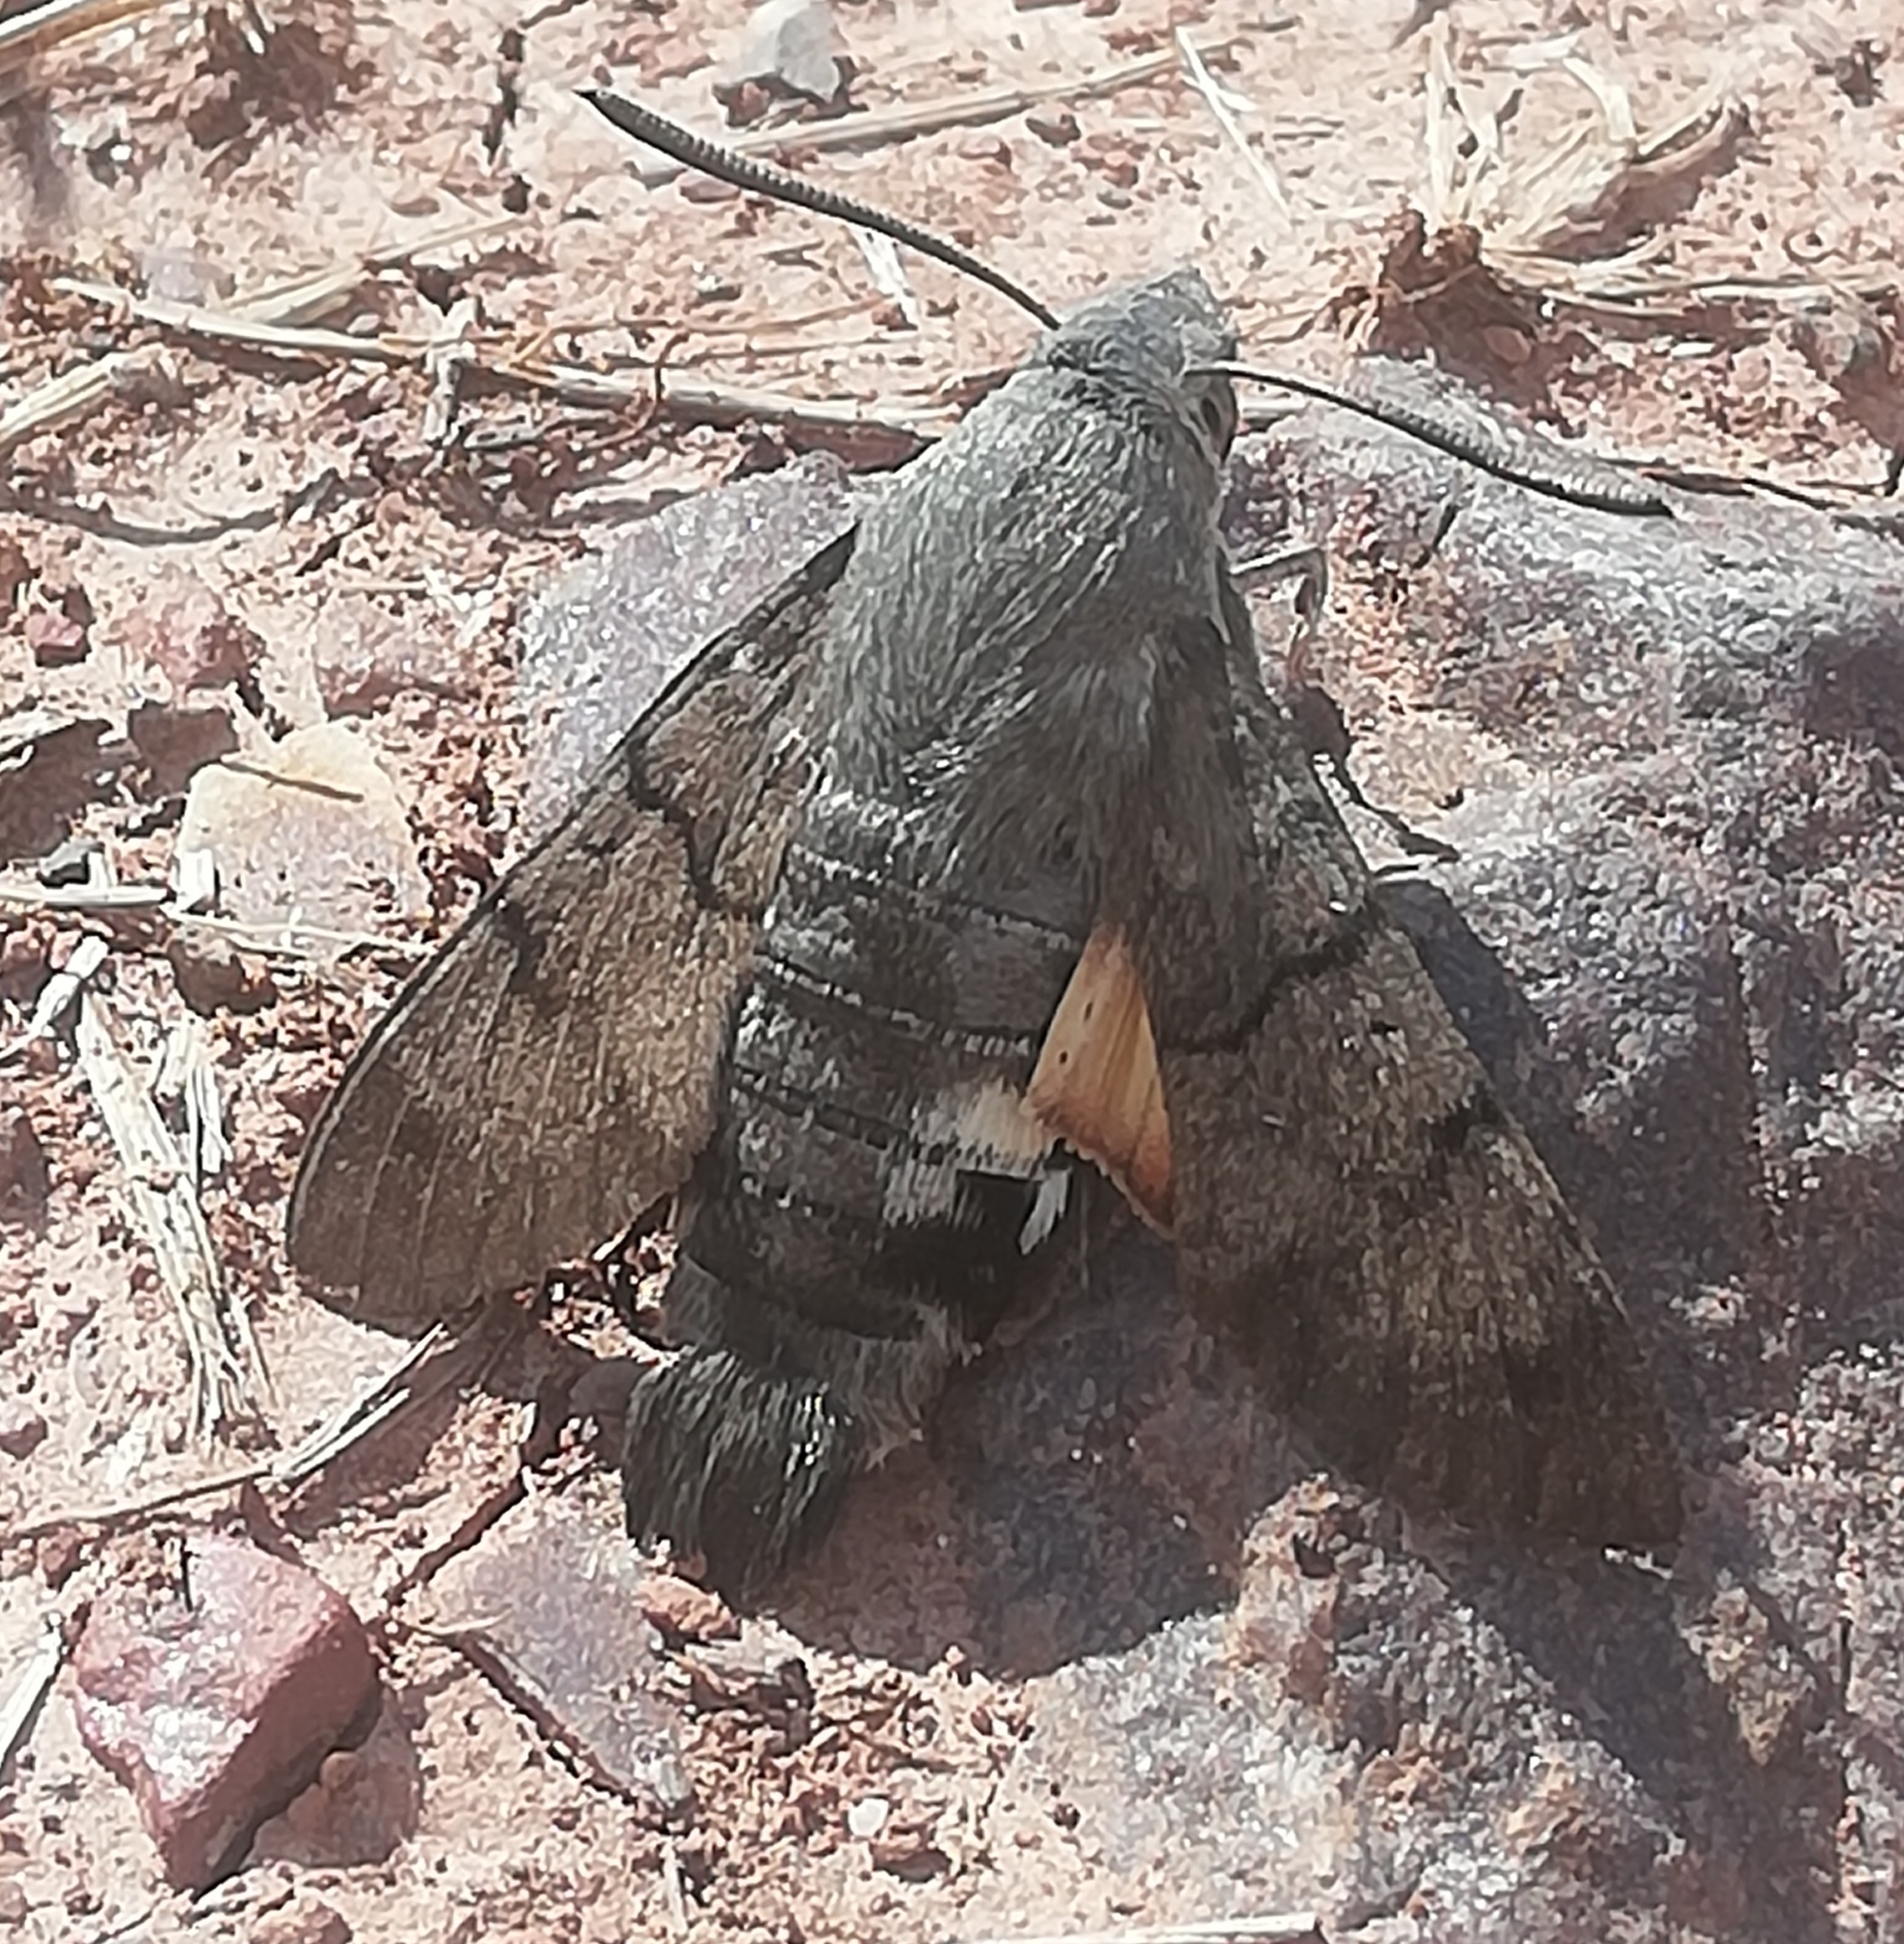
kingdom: Animalia
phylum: Arthropoda
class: Insecta
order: Lepidoptera
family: Sphingidae
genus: Macroglossum
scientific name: Macroglossum stellatarum
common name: Humming-bird hawk-moth
